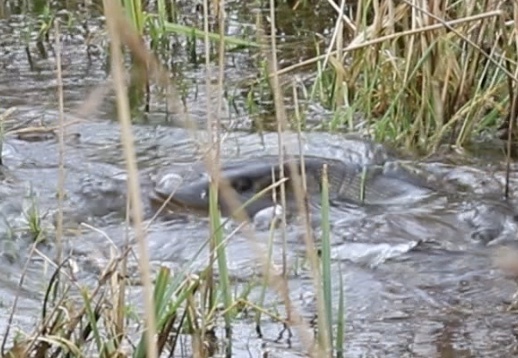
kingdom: Animalia
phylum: Chordata
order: Esociformes
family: Esocidae
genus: Esox
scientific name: Esox lucius
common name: Northern pike
